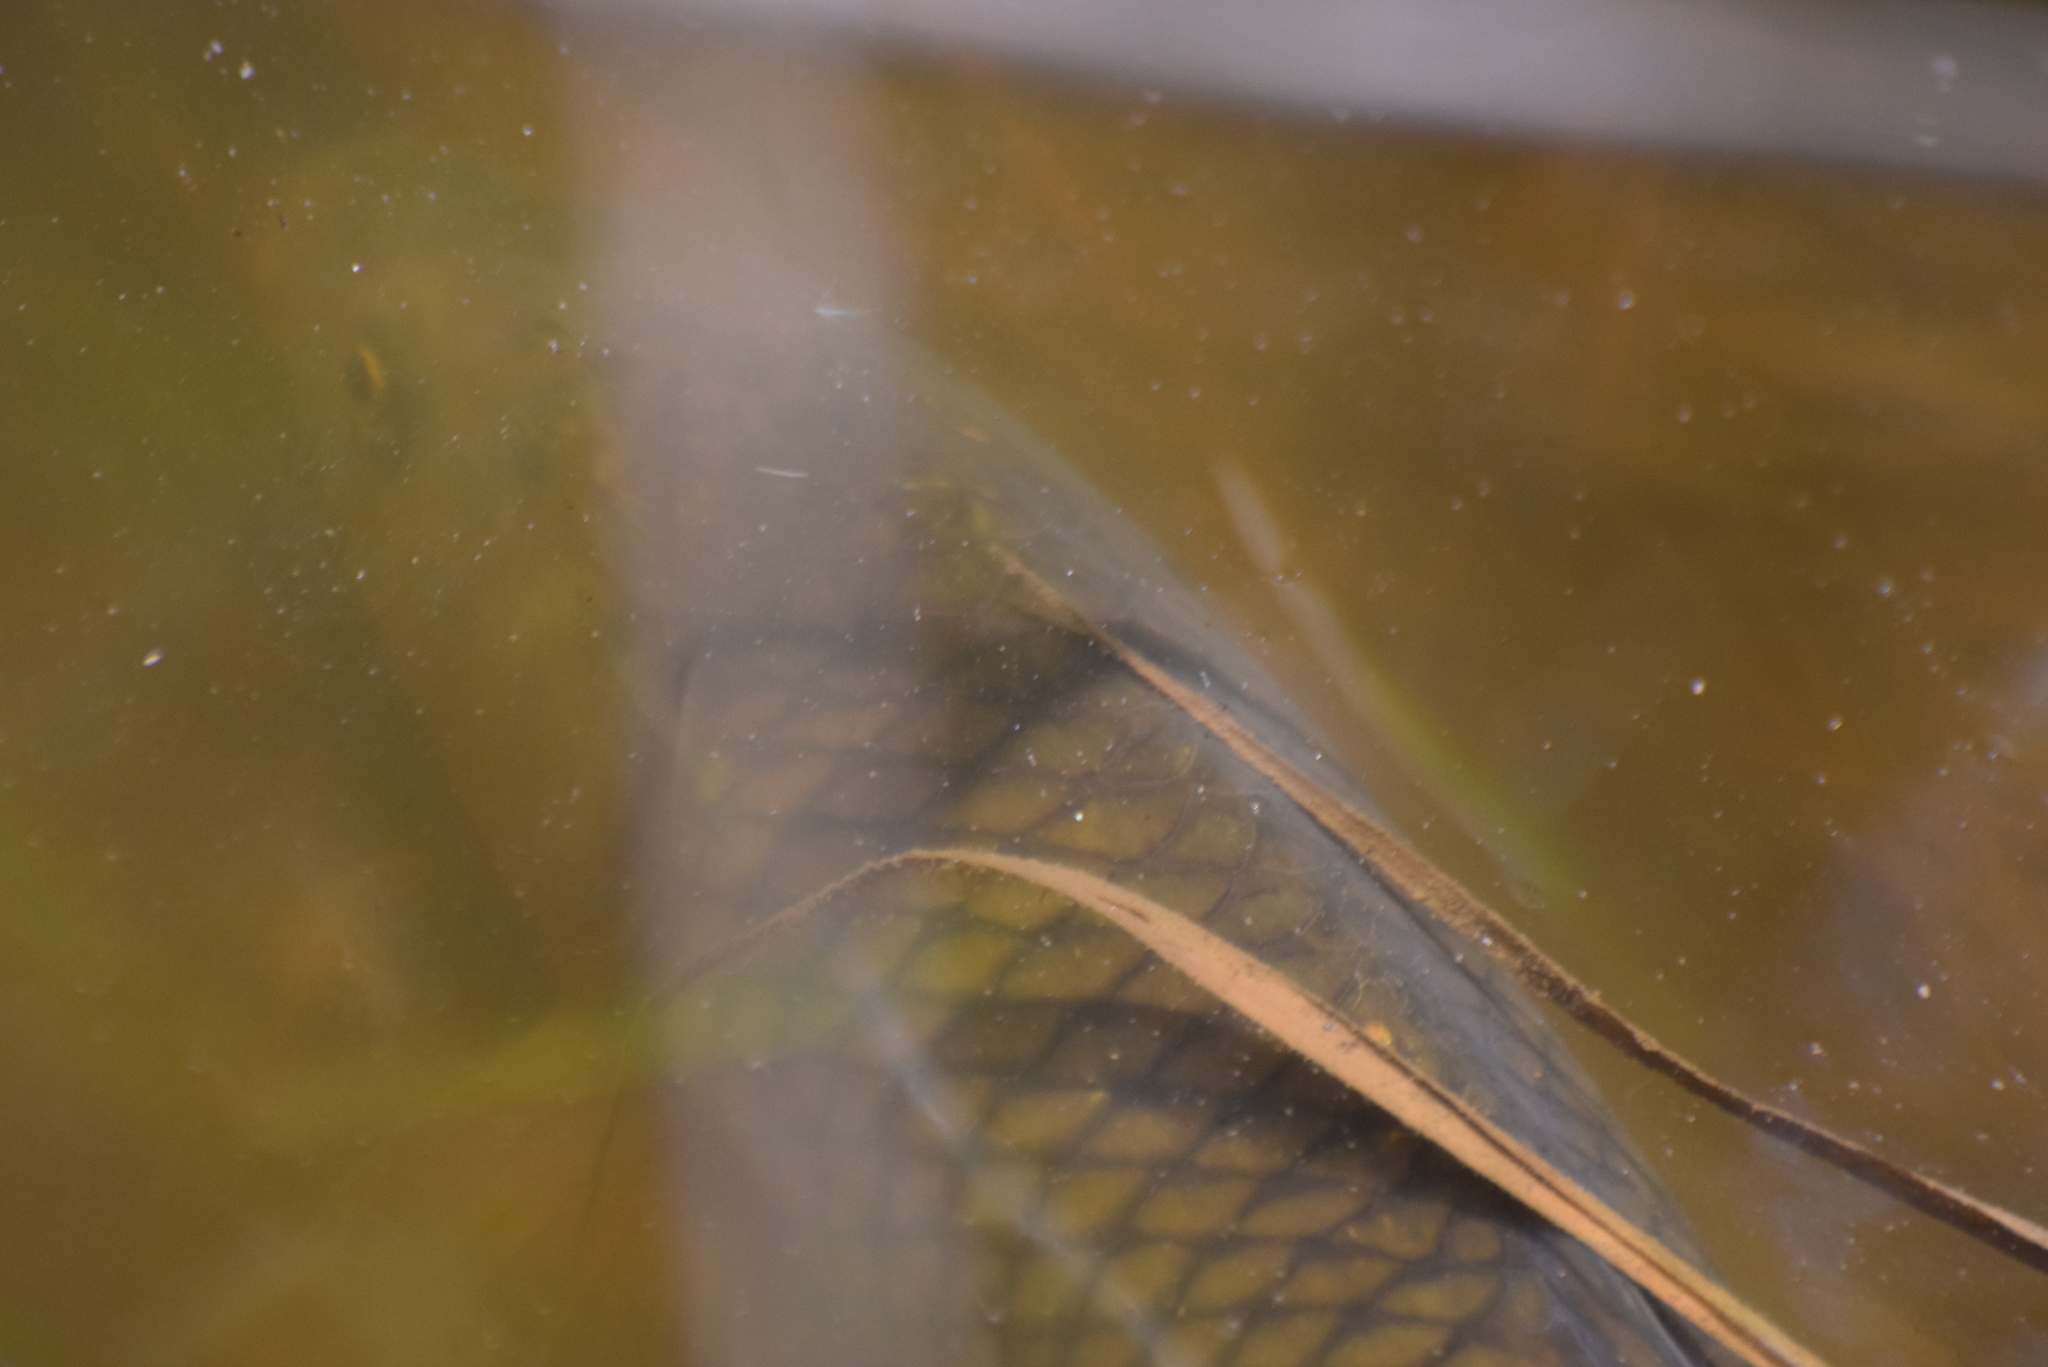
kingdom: Animalia
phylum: Chordata
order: Cypriniformes
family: Cyprinidae
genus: Cyprinus
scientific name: Cyprinus carpio
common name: Common carp
